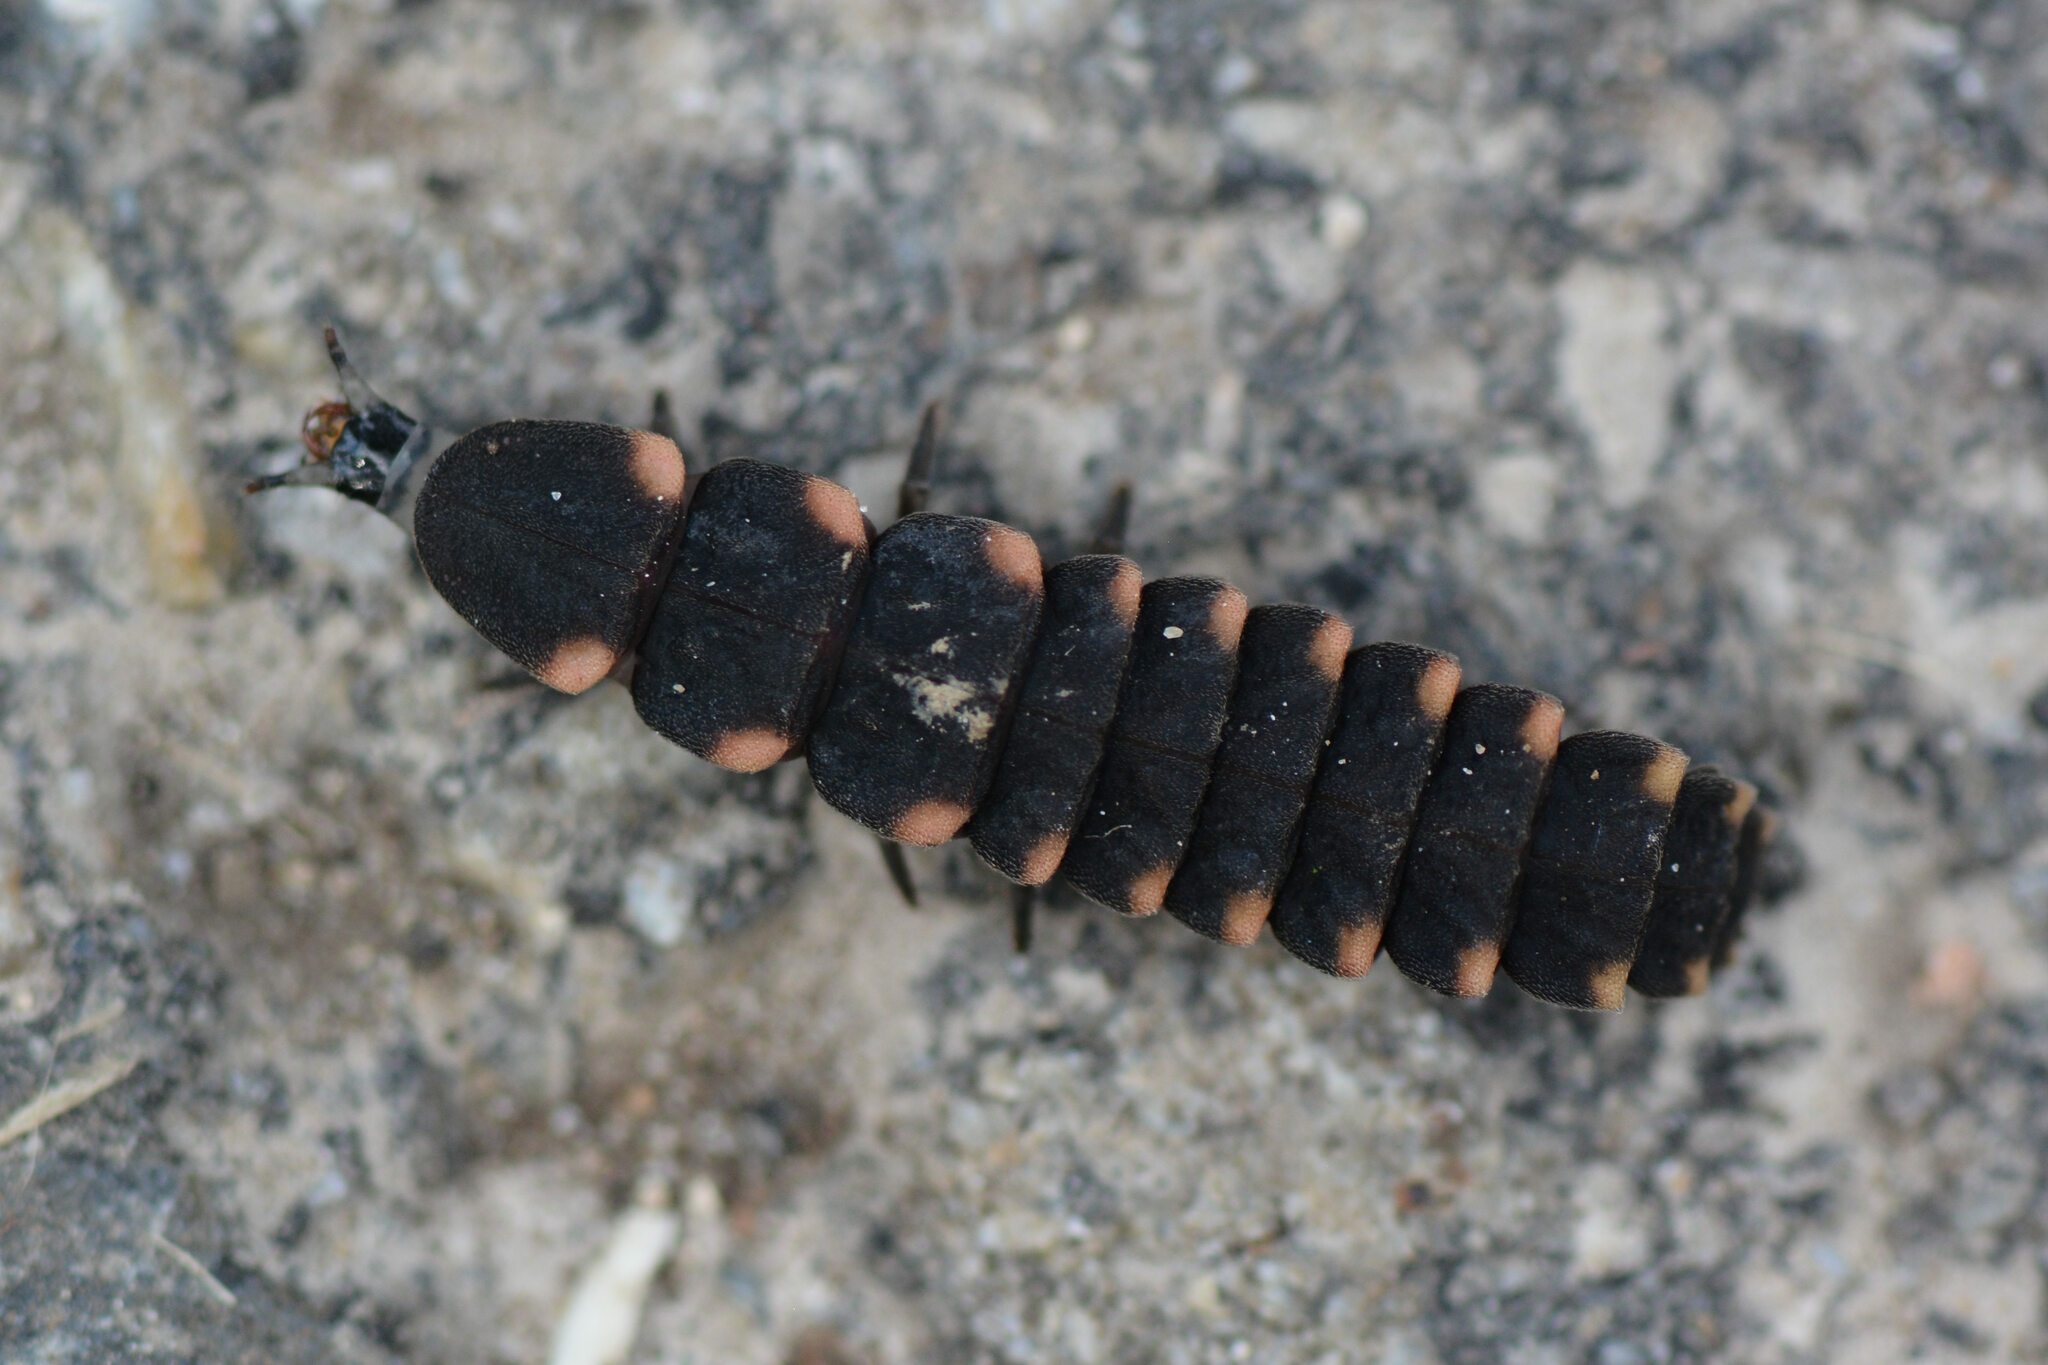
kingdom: Animalia
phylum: Arthropoda
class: Insecta
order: Coleoptera
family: Lampyridae
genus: Lampyris
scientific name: Lampyris noctiluca
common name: Glow-worm
